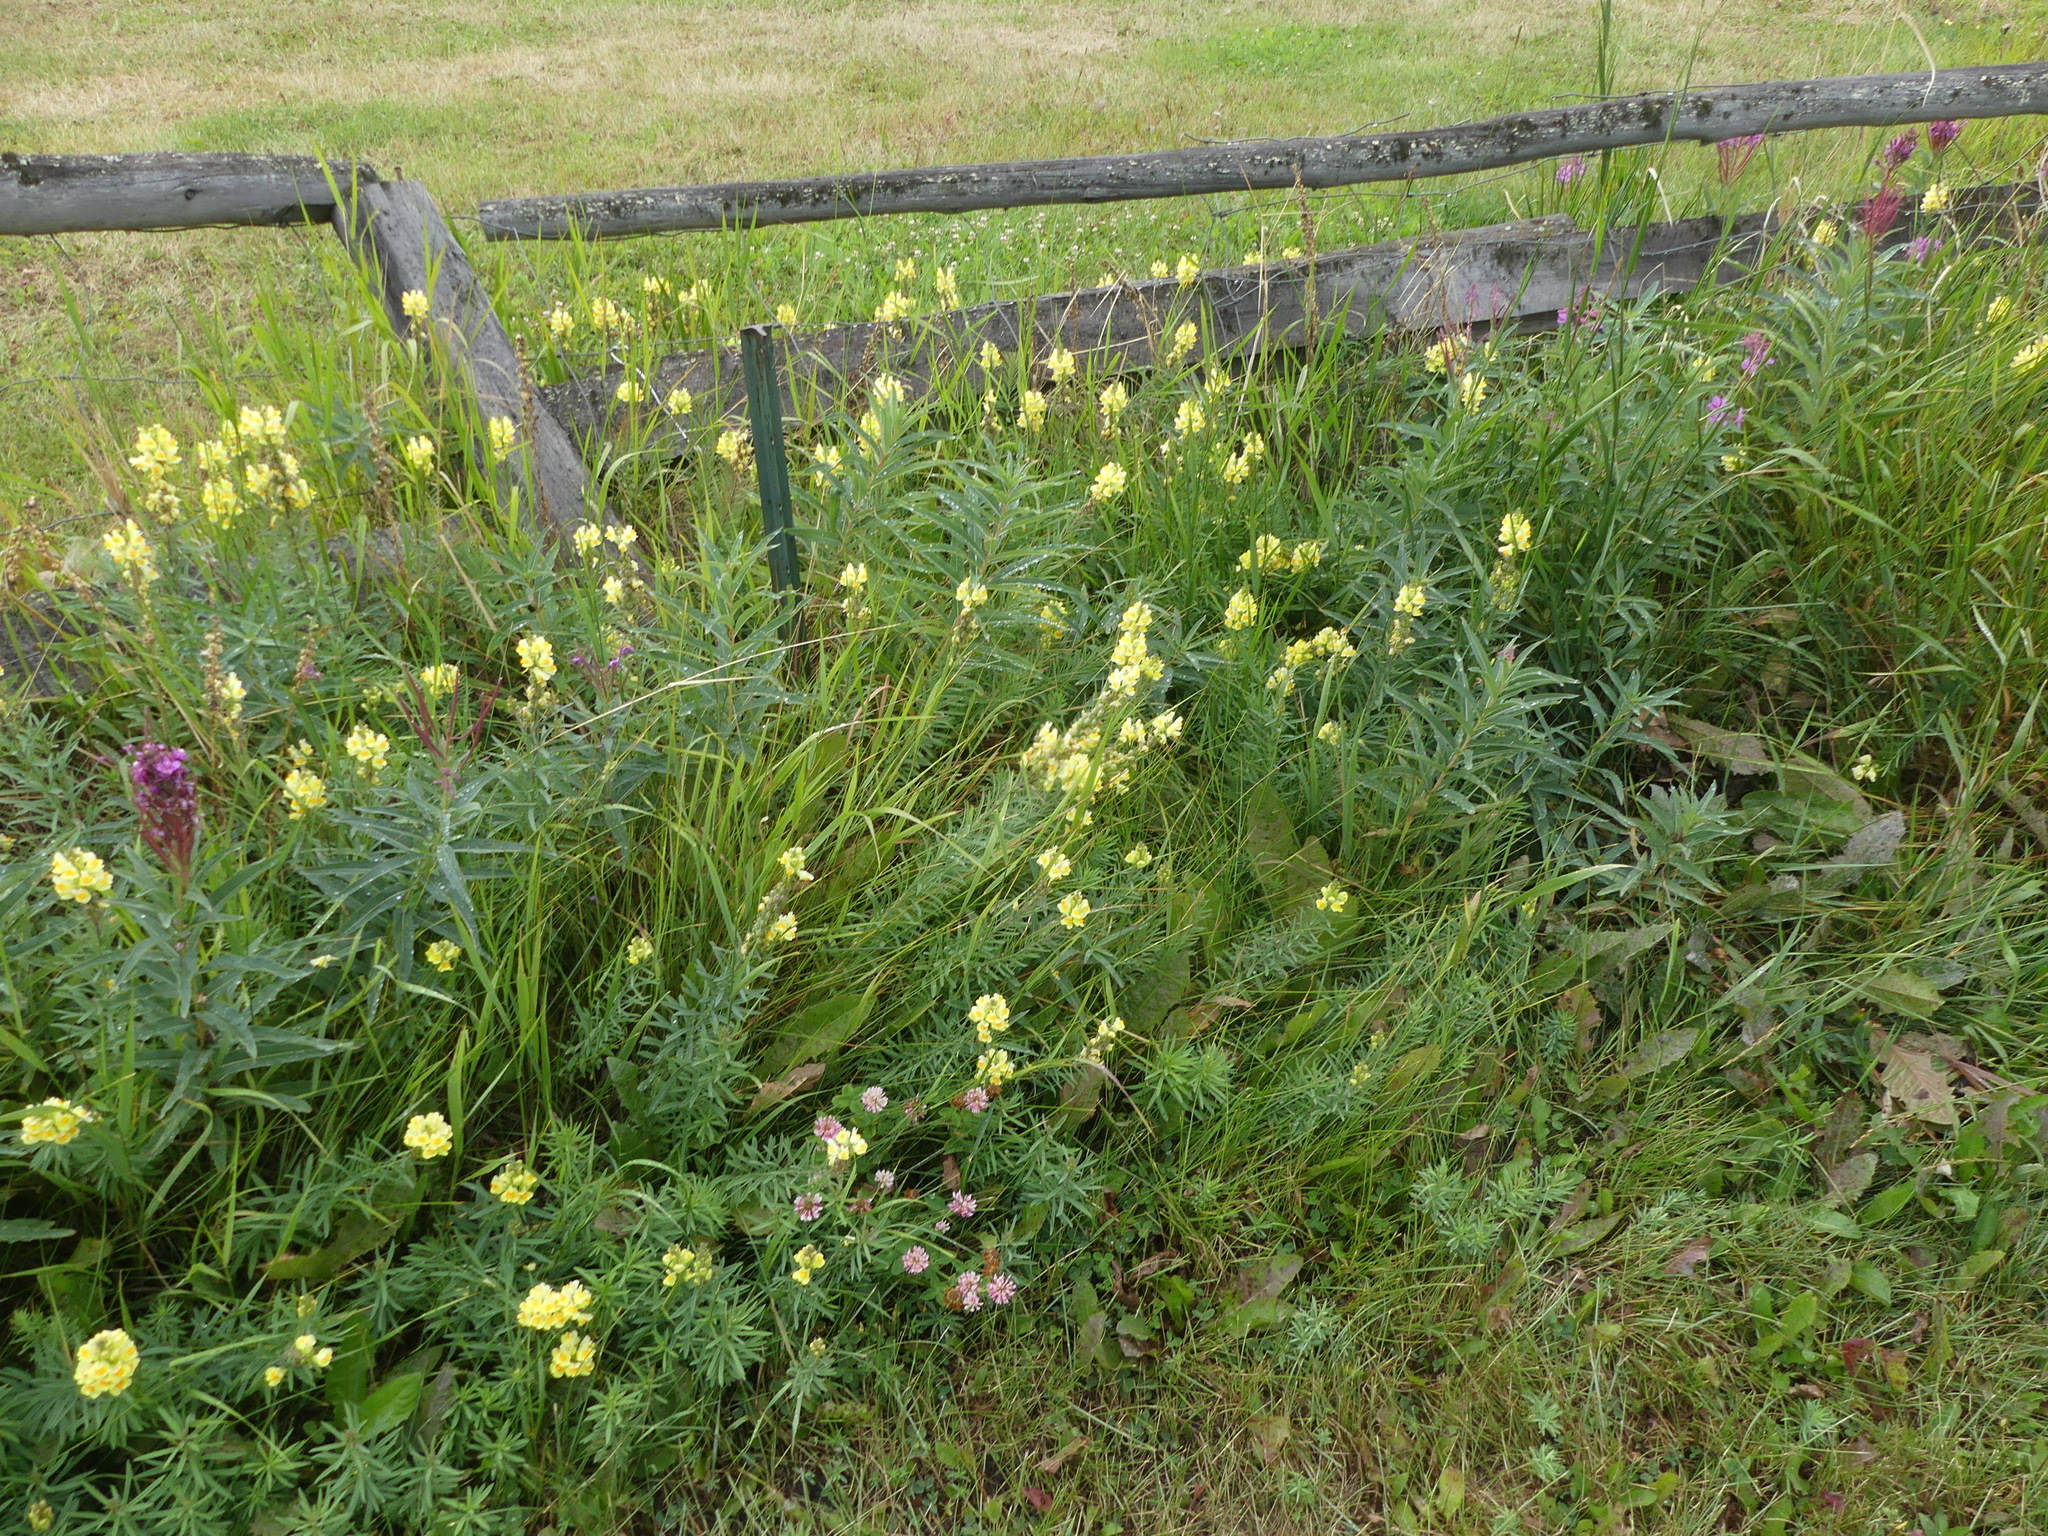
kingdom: Plantae
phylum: Tracheophyta
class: Magnoliopsida
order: Lamiales
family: Plantaginaceae
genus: Linaria
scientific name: Linaria vulgaris
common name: Butter and eggs
